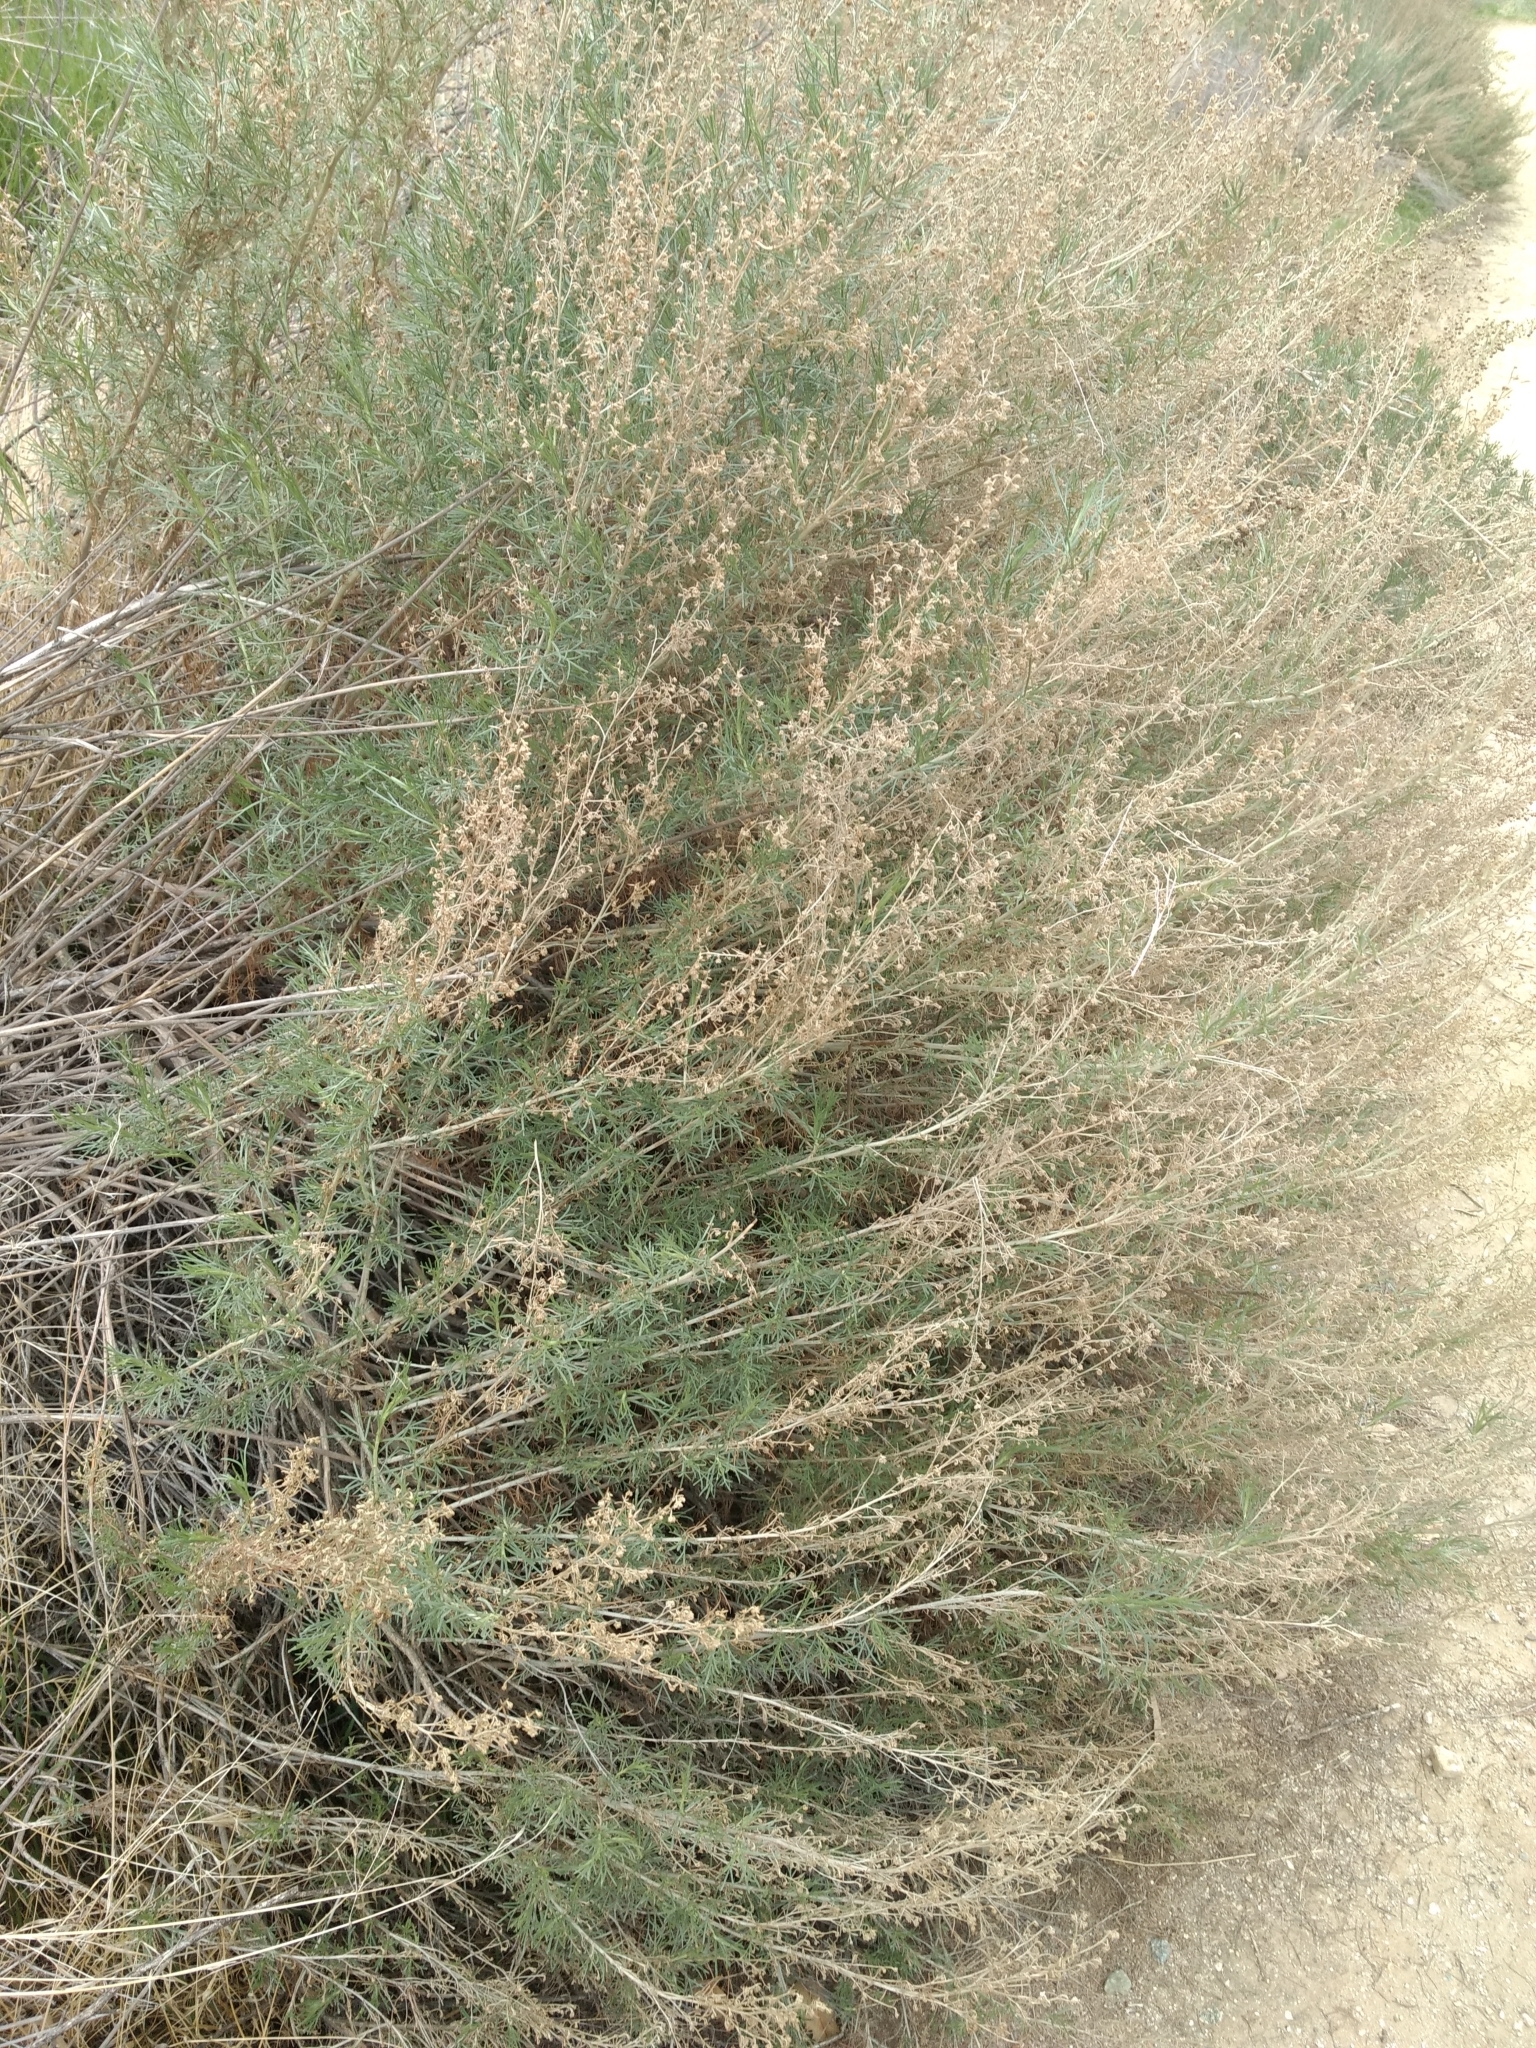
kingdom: Plantae
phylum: Tracheophyta
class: Magnoliopsida
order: Asterales
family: Asteraceae
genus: Artemisia
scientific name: Artemisia californica
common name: California sagebrush
